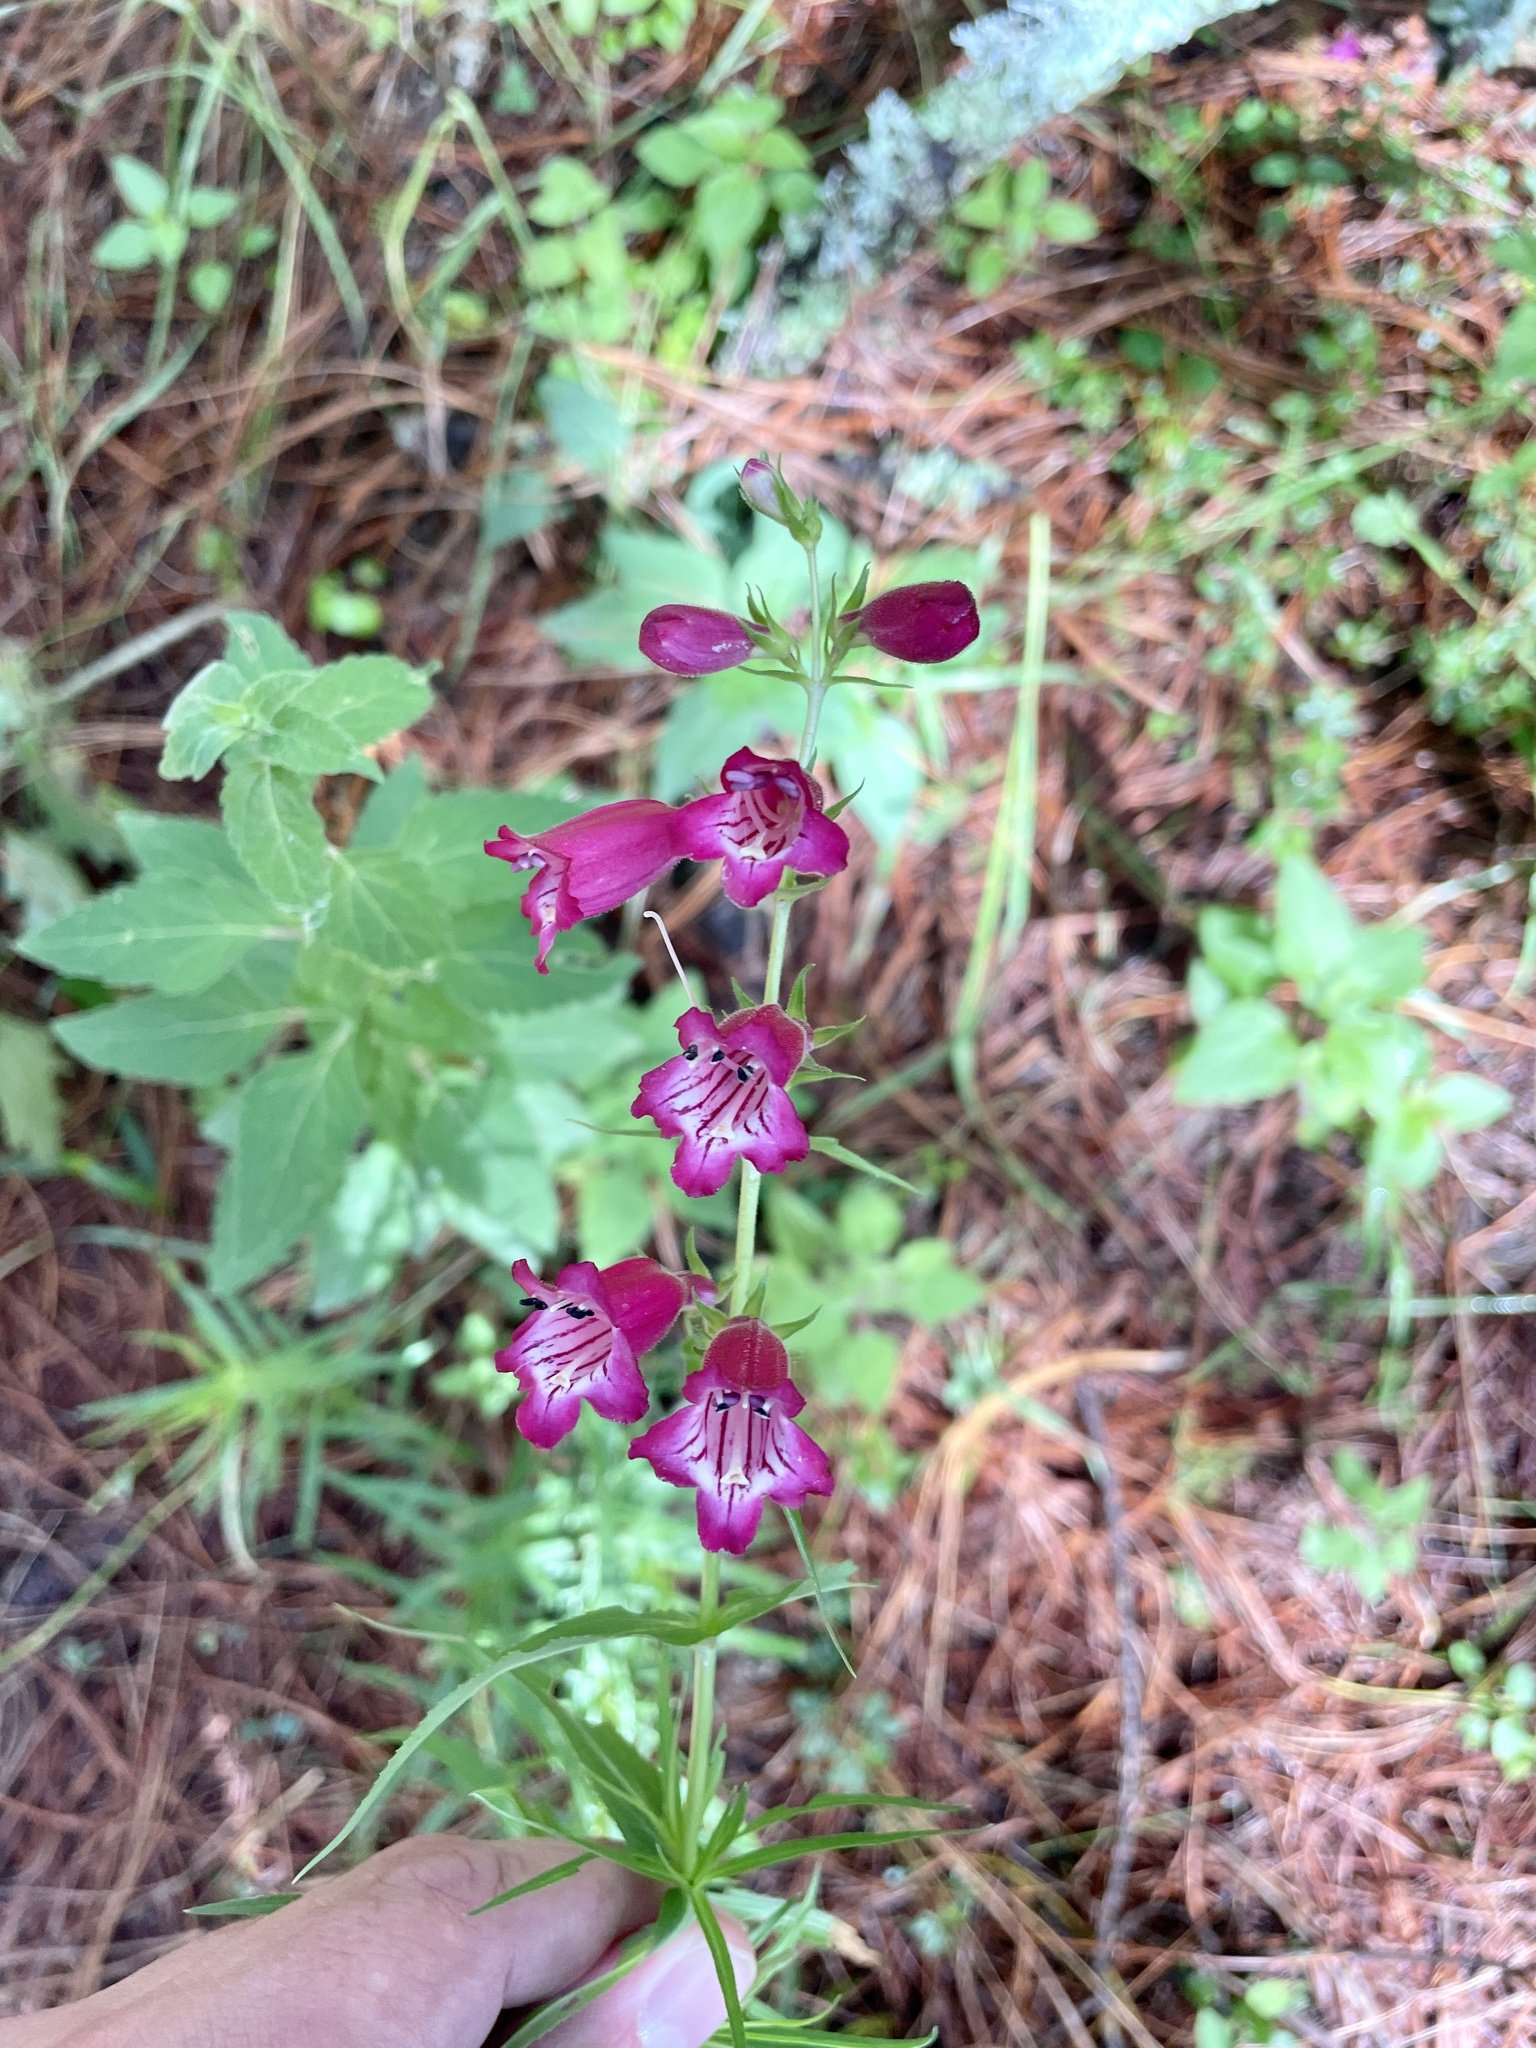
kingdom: Plantae
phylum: Tracheophyta
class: Magnoliopsida
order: Lamiales
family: Plantaginaceae
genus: Penstemon
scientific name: Penstemon roseus
